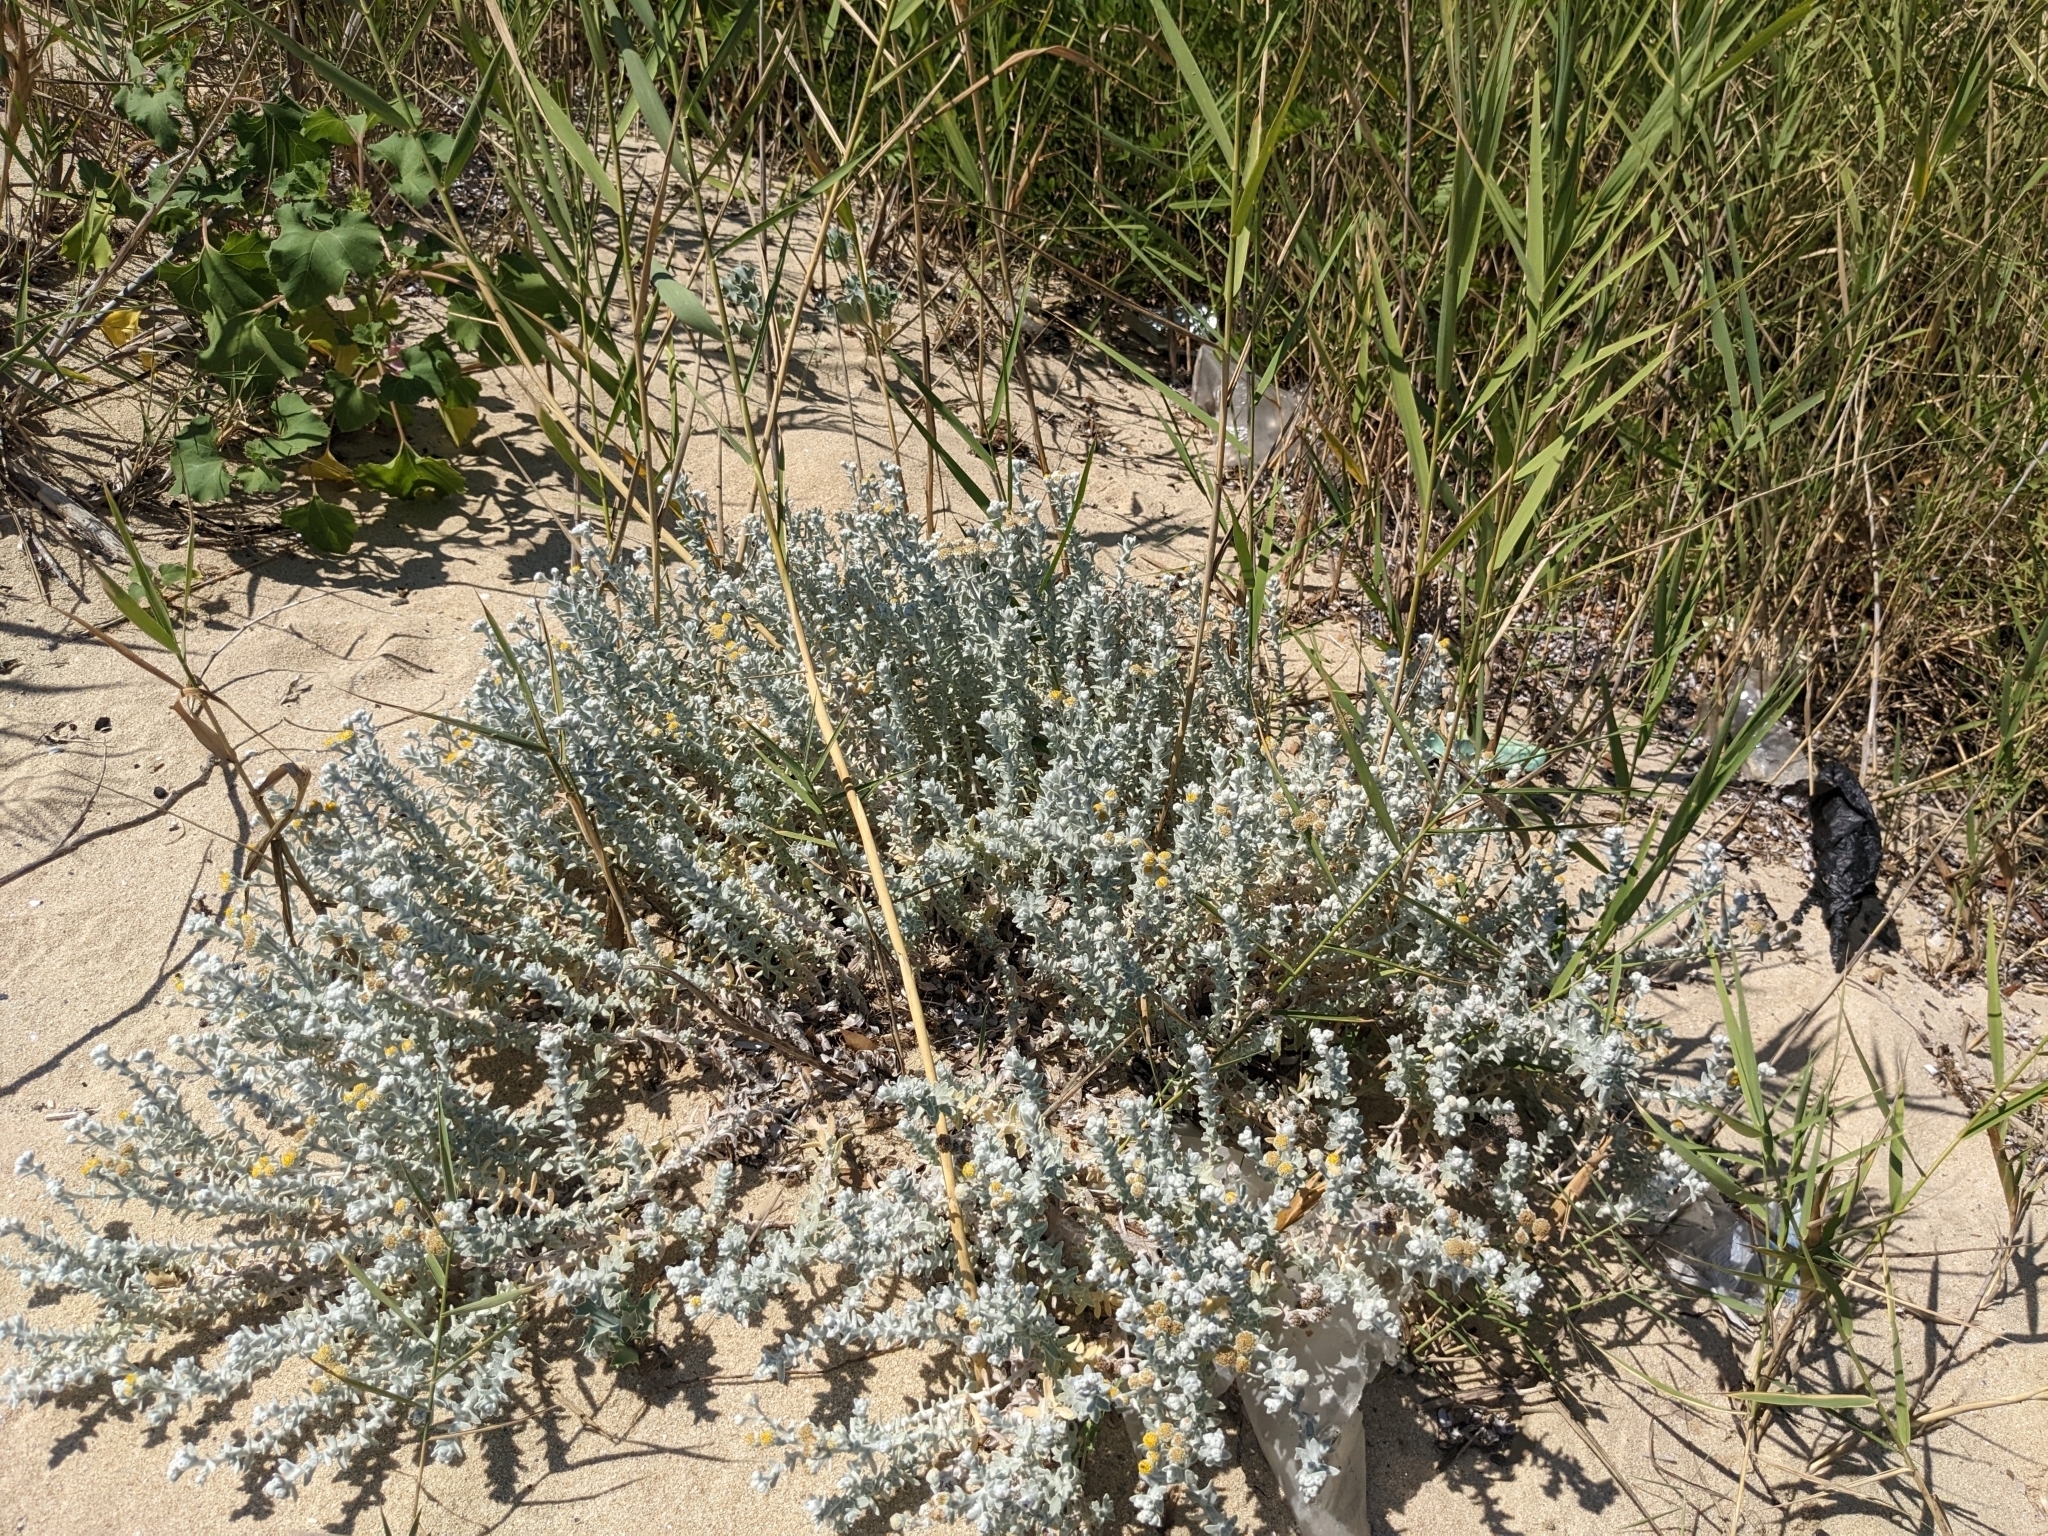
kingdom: Plantae
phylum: Tracheophyta
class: Magnoliopsida
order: Asterales
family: Asteraceae
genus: Achillea
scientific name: Achillea maritima
